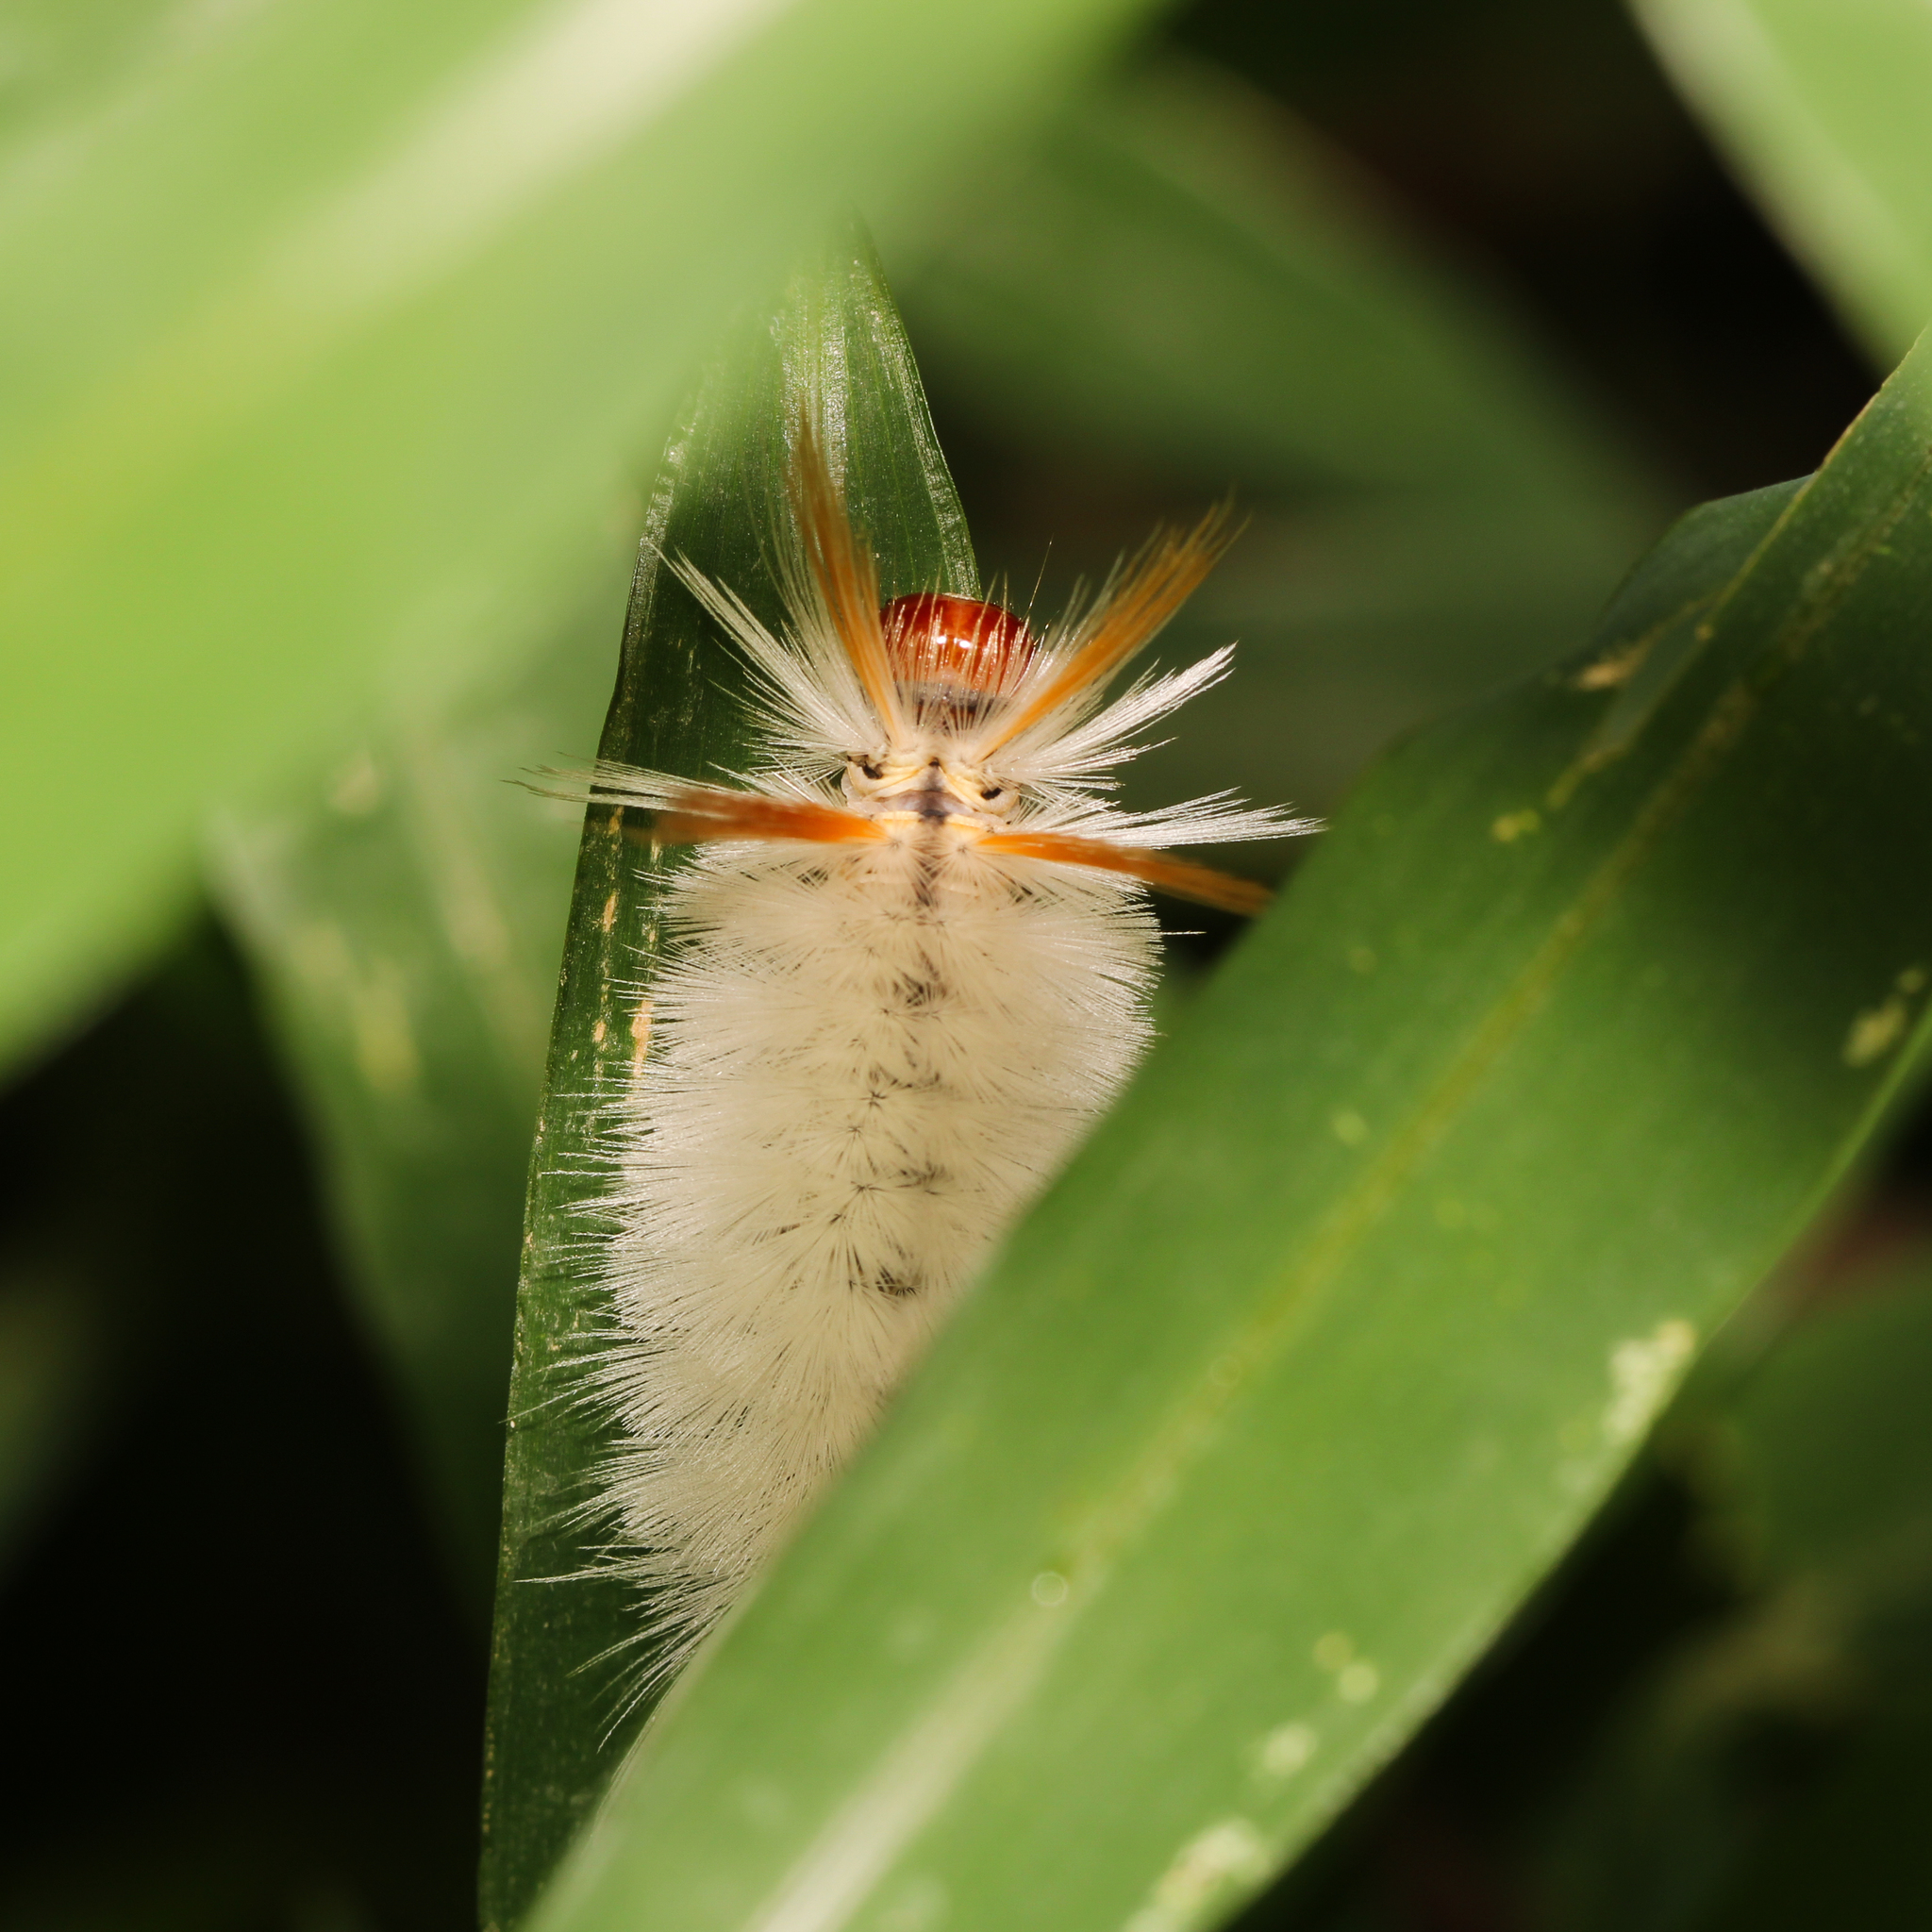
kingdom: Animalia
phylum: Arthropoda
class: Insecta
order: Lepidoptera
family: Erebidae
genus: Halysidota
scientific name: Halysidota harrisii
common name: Sycamore tussock moth
